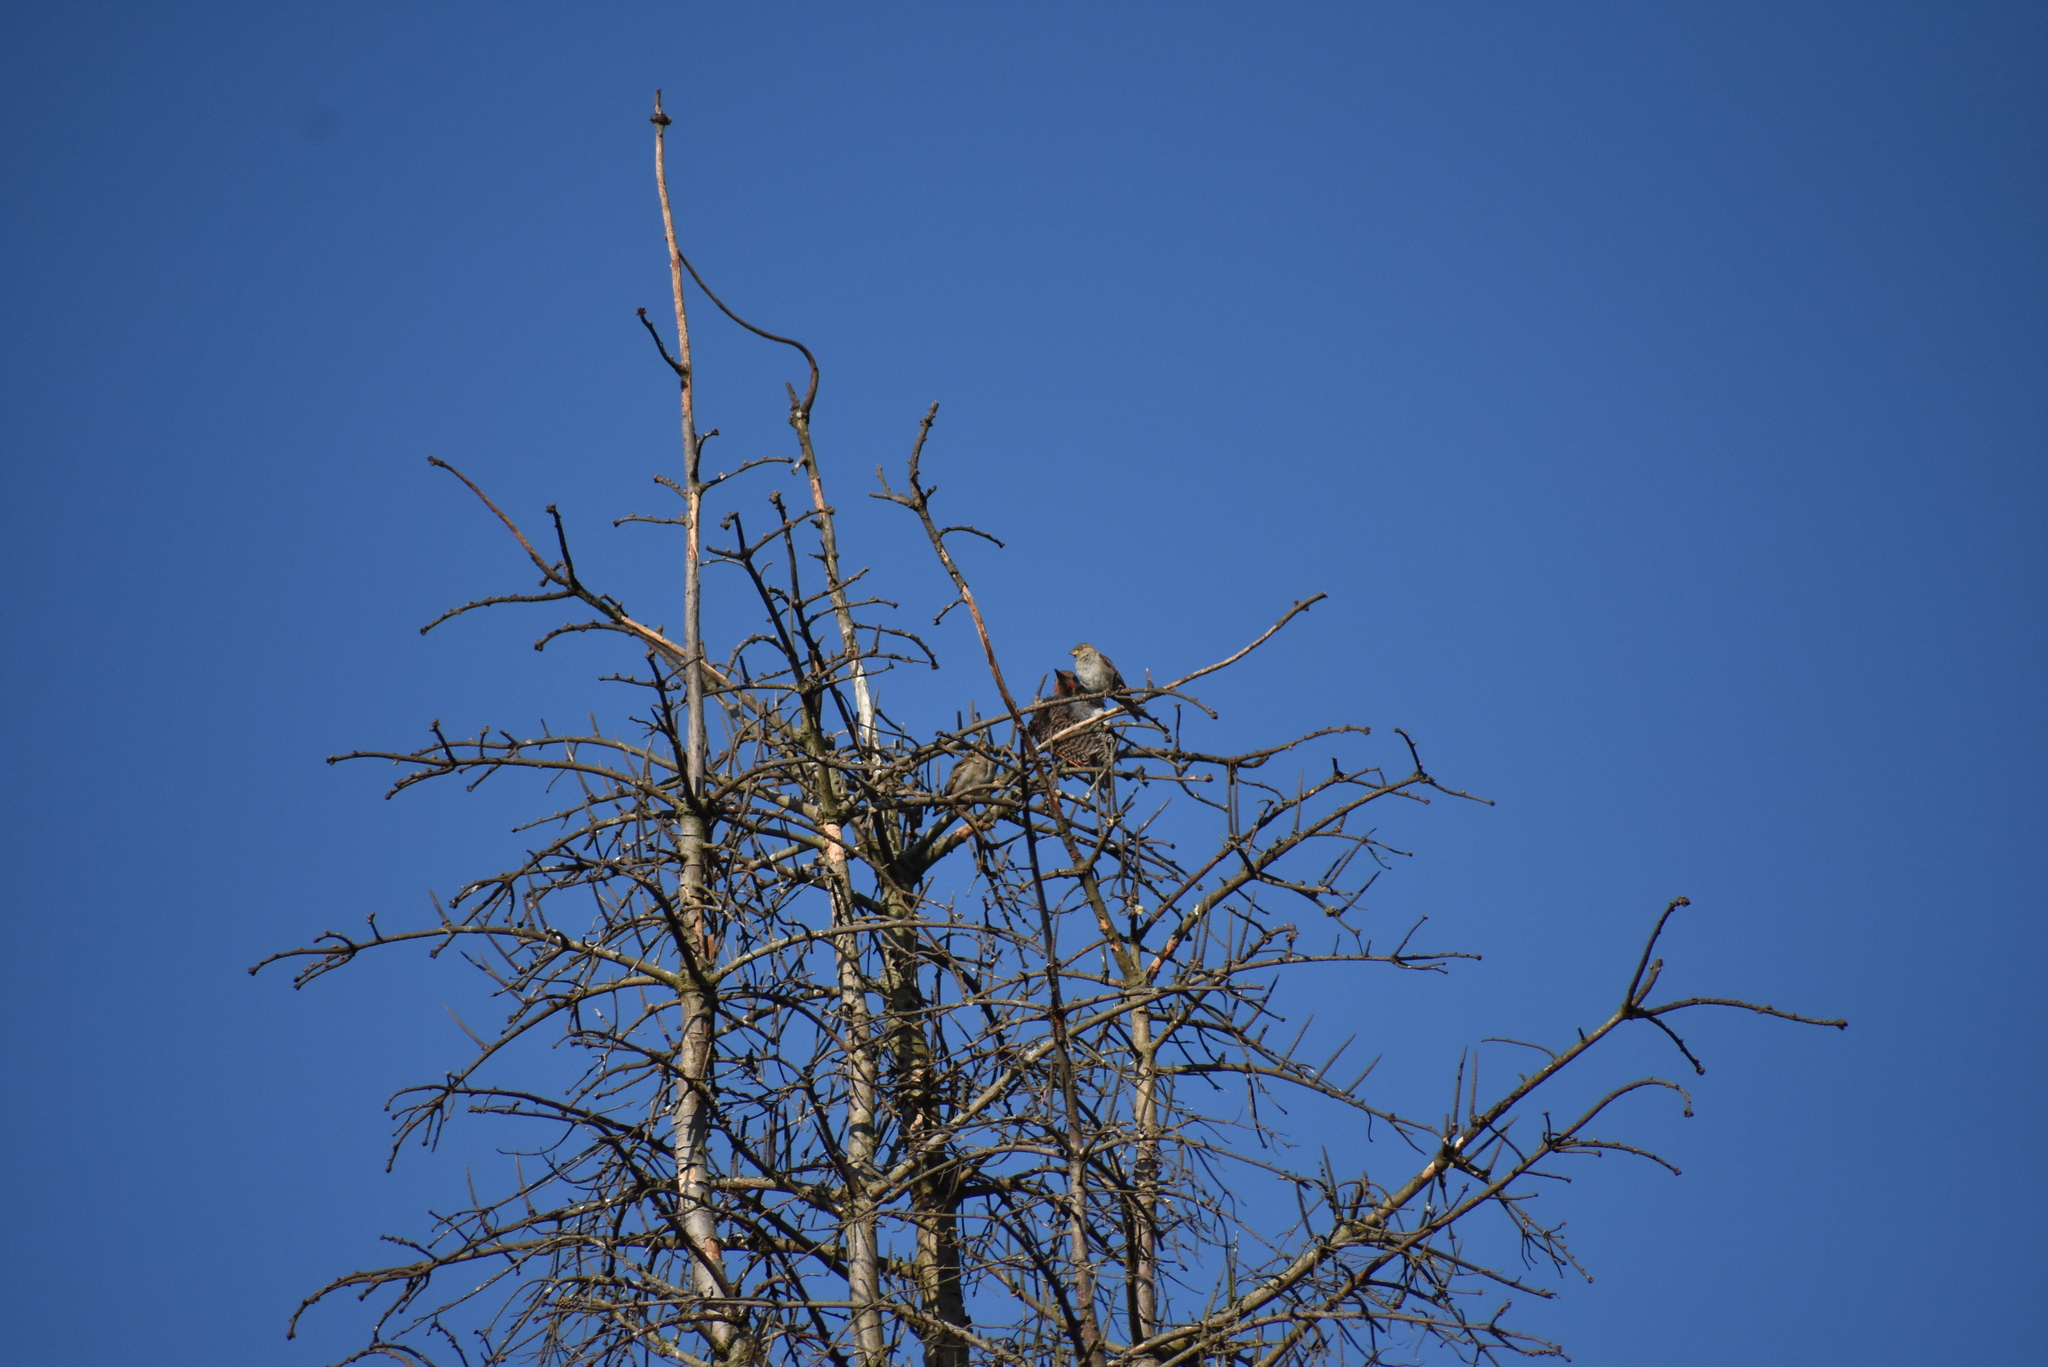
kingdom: Animalia
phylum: Chordata
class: Aves
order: Piciformes
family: Picidae
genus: Colaptes
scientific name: Colaptes auratus
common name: Northern flicker
